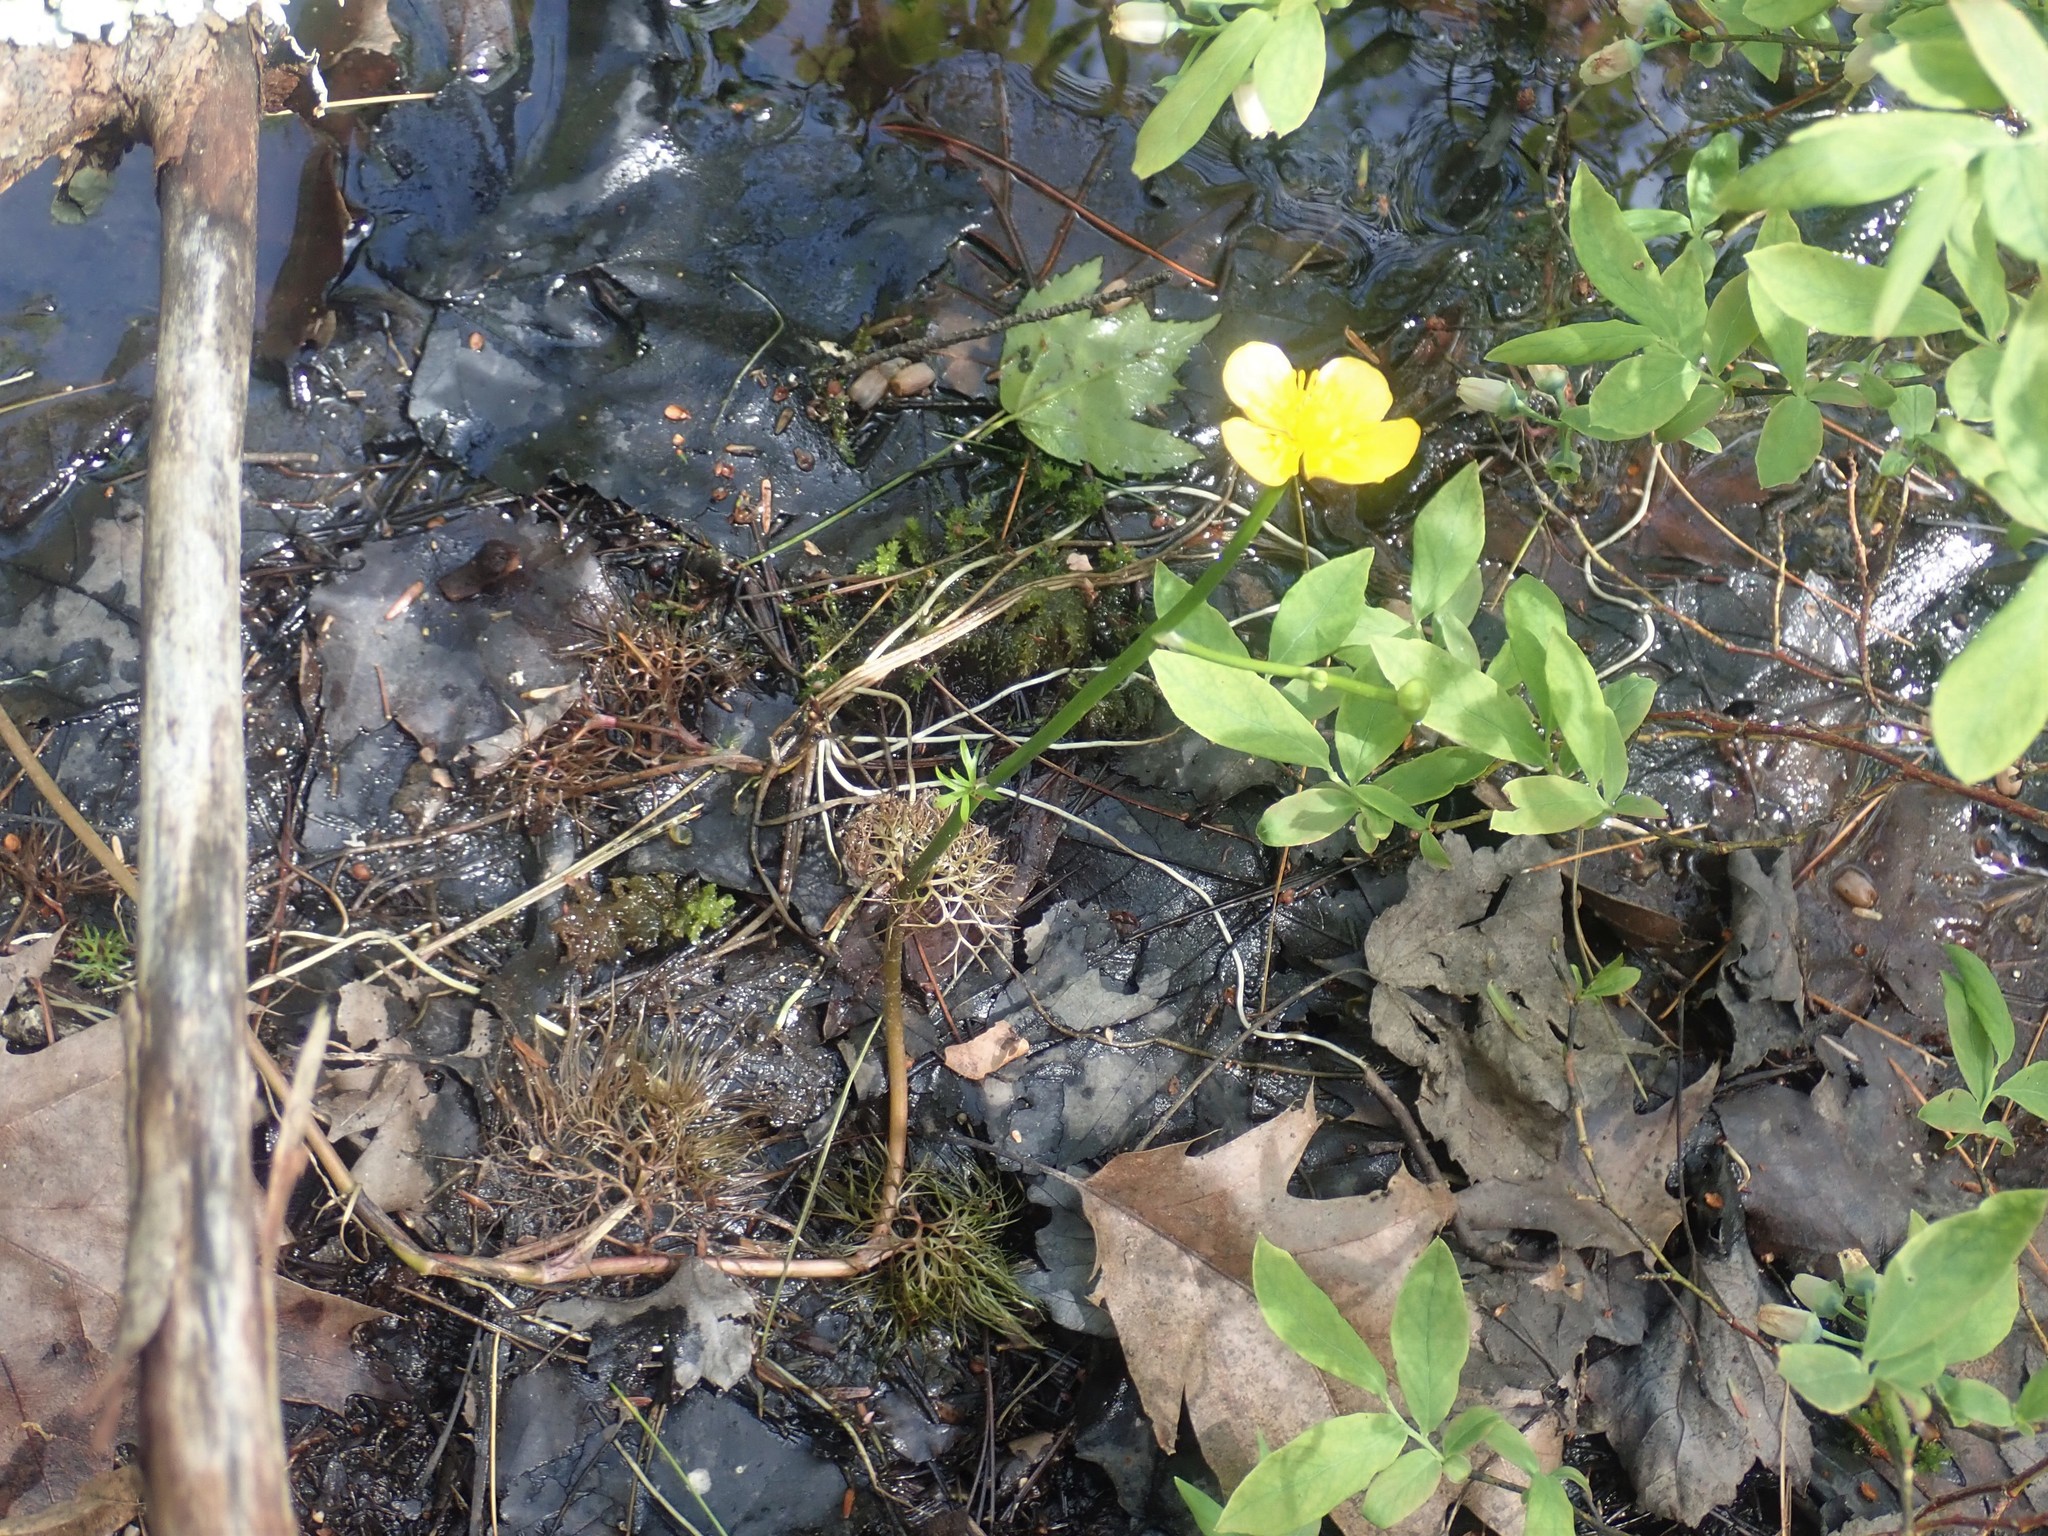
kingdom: Plantae
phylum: Tracheophyta
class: Magnoliopsida
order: Ranunculales
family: Ranunculaceae
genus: Ranunculus
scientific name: Ranunculus flabellaris
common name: Yellow water-crowfoot
